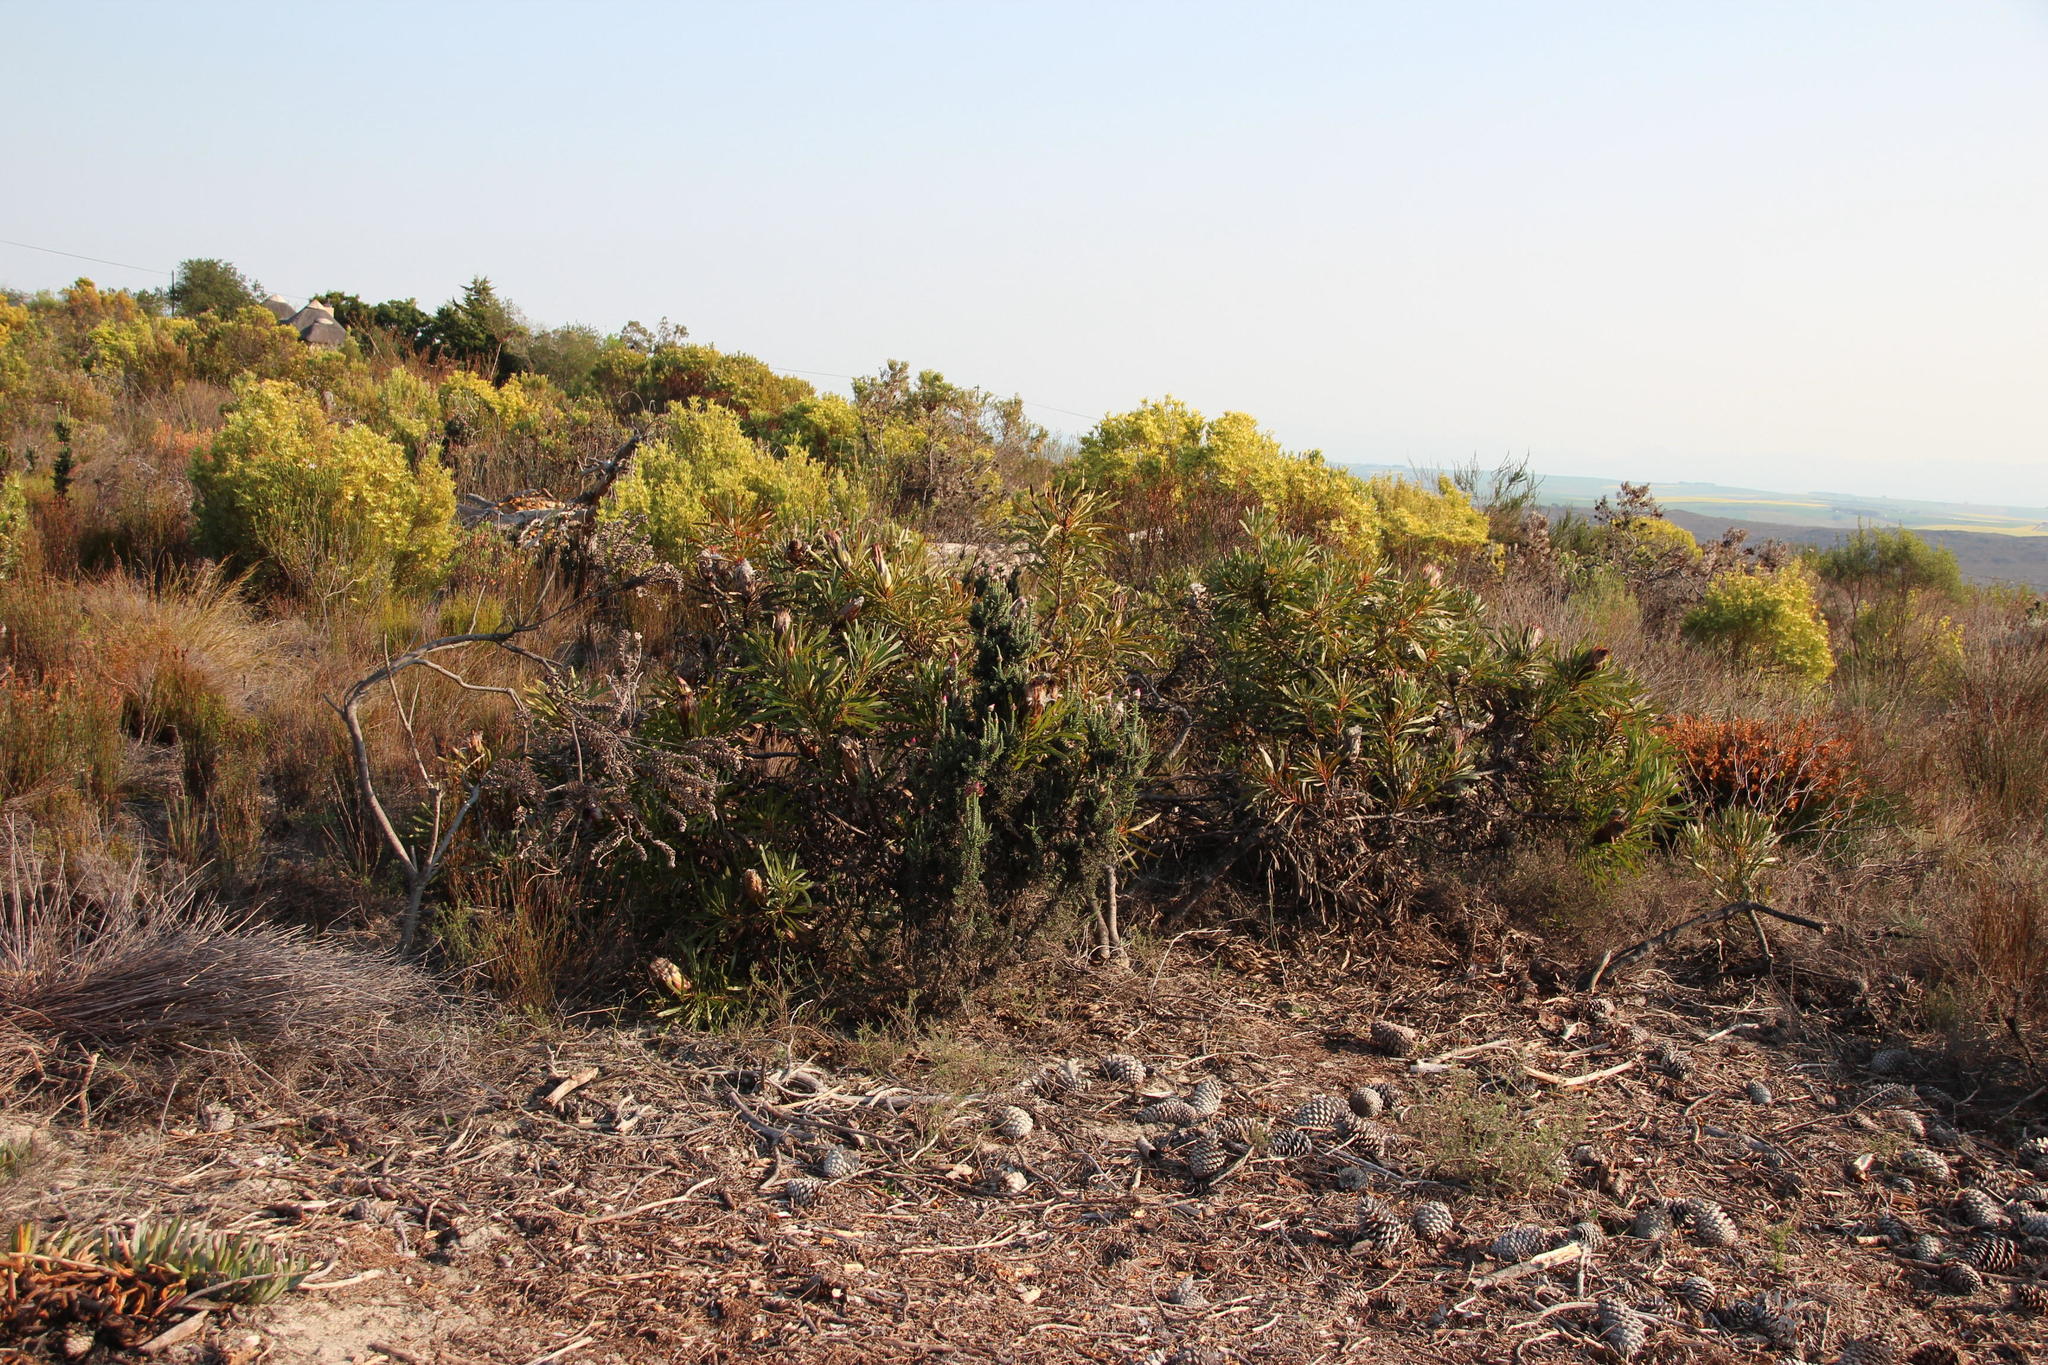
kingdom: Plantae
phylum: Tracheophyta
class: Magnoliopsida
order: Proteales
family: Proteaceae
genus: Protea
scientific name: Protea
